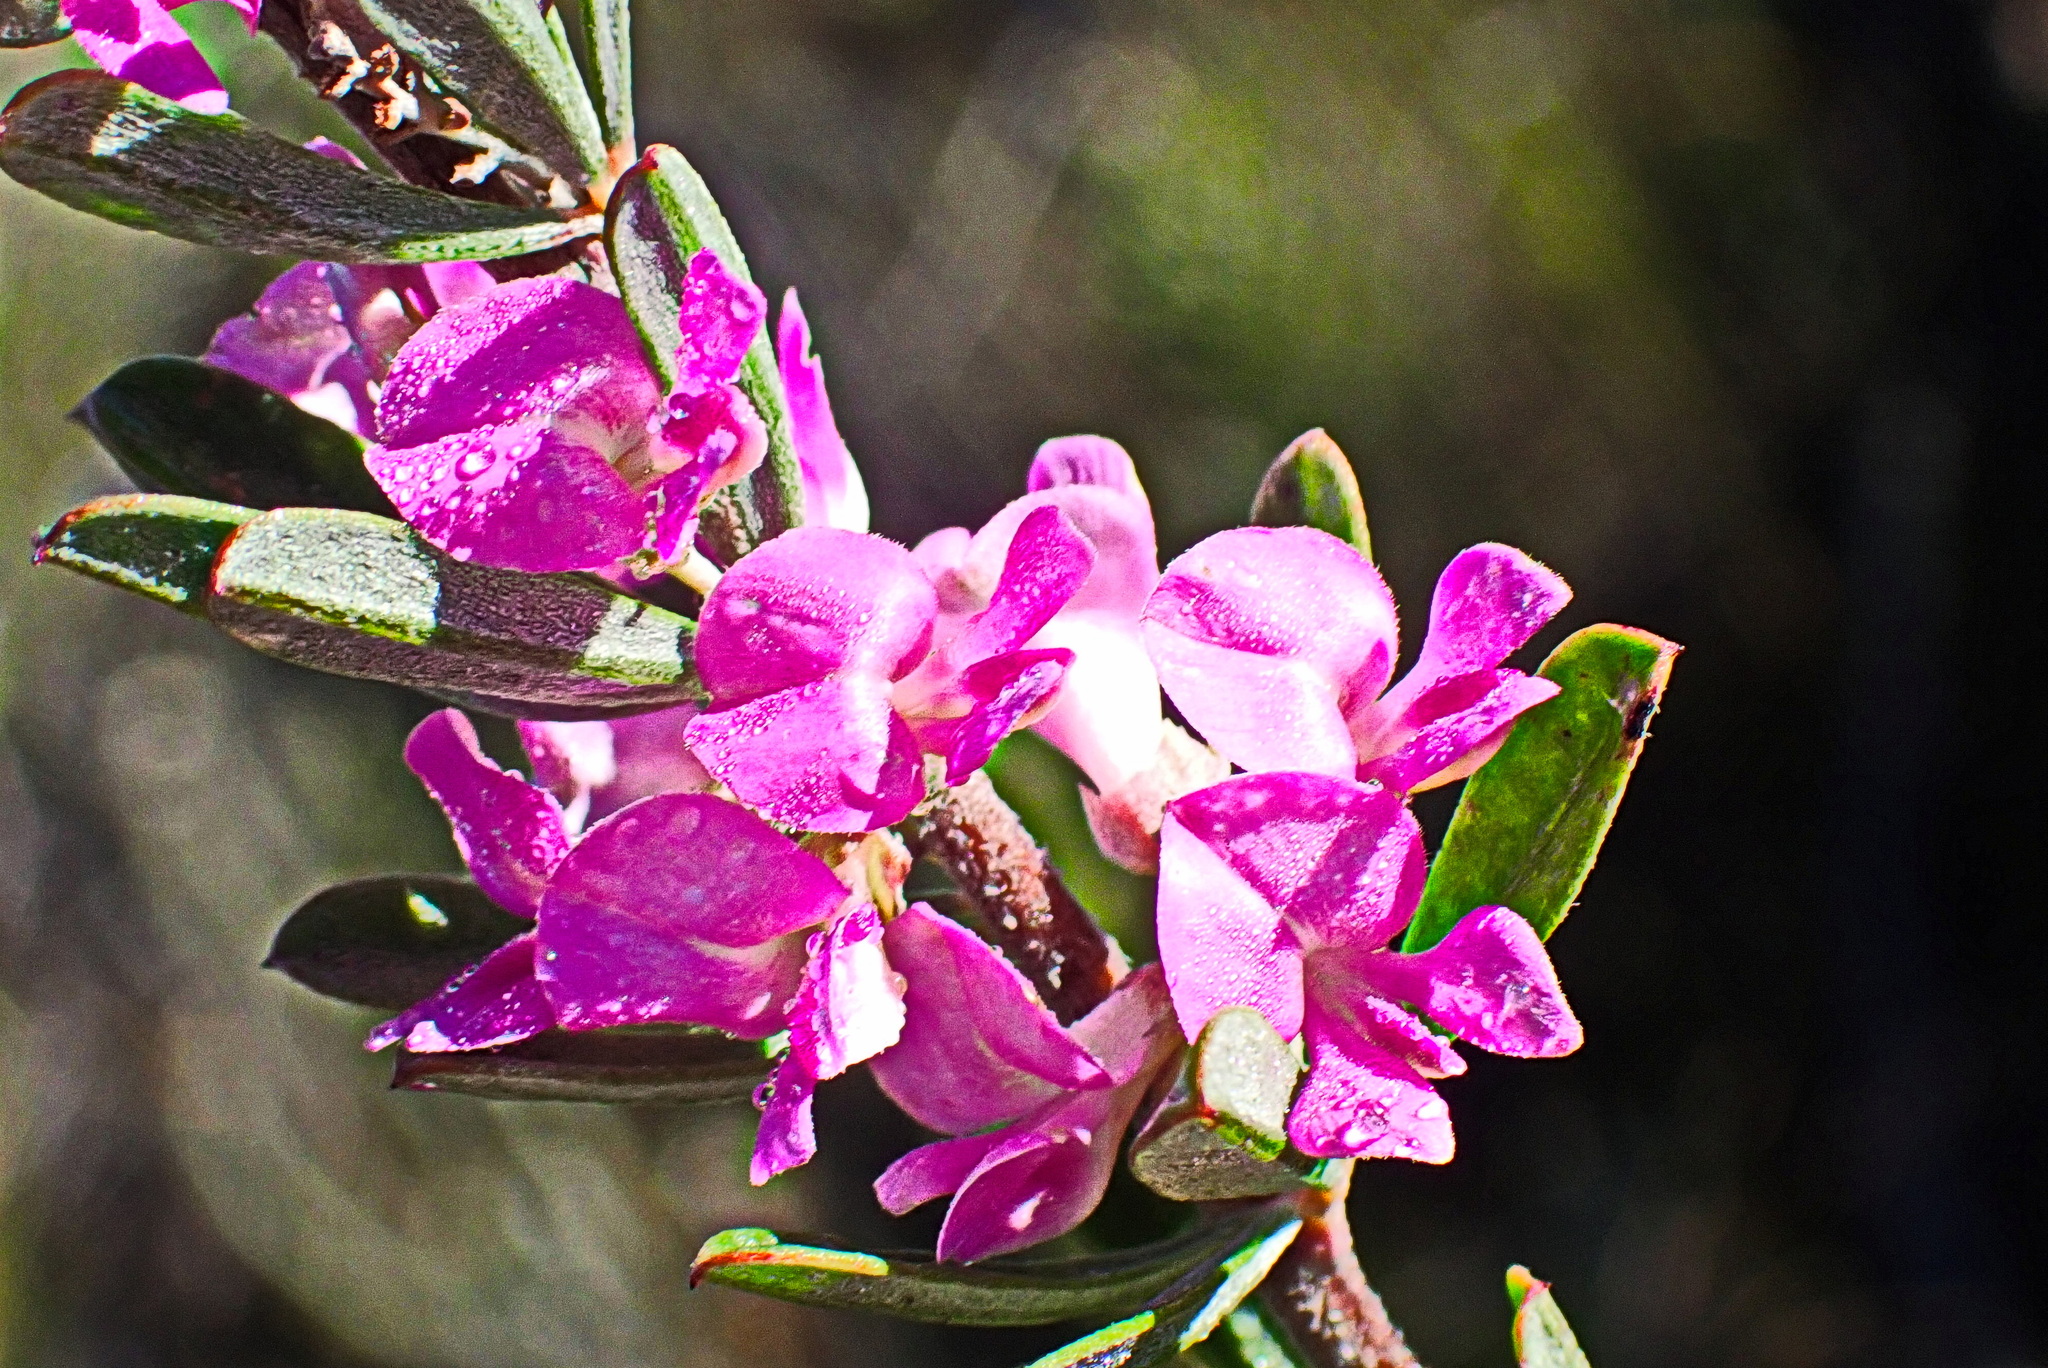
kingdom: Plantae
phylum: Tracheophyta
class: Magnoliopsida
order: Fabales
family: Fabaceae
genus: Indigofera
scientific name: Indigofera flabellata
